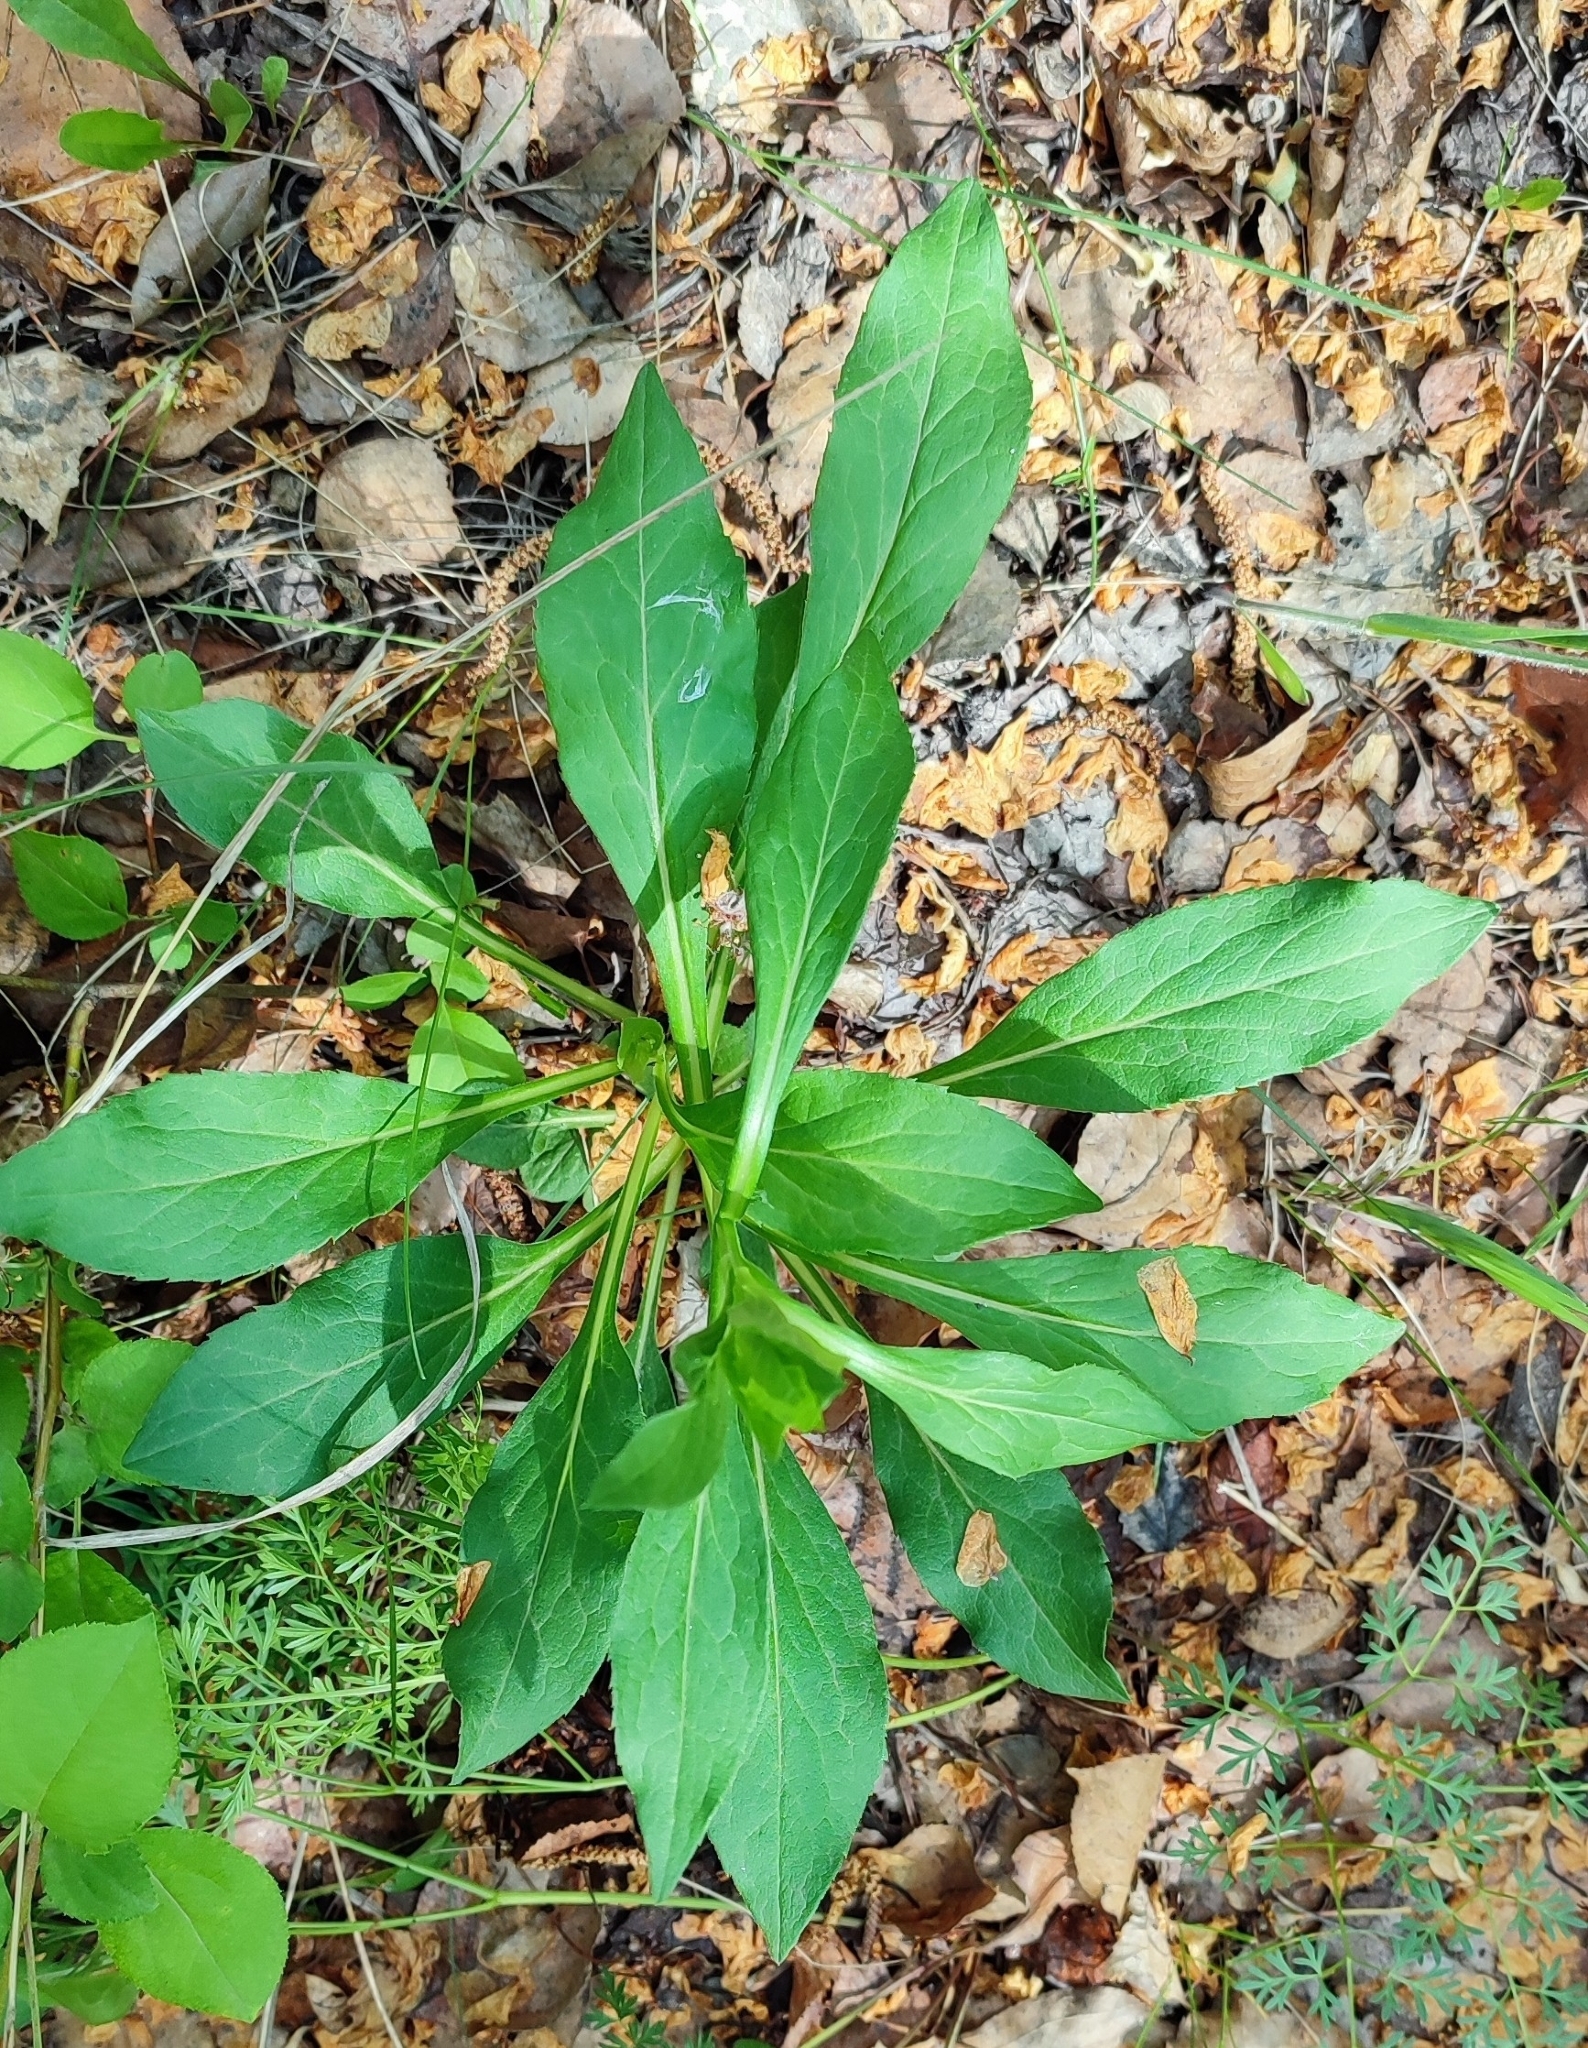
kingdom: Plantae
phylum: Tracheophyta
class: Magnoliopsida
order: Asterales
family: Asteraceae
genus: Solidago
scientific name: Solidago virgaurea
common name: Goldenrod
